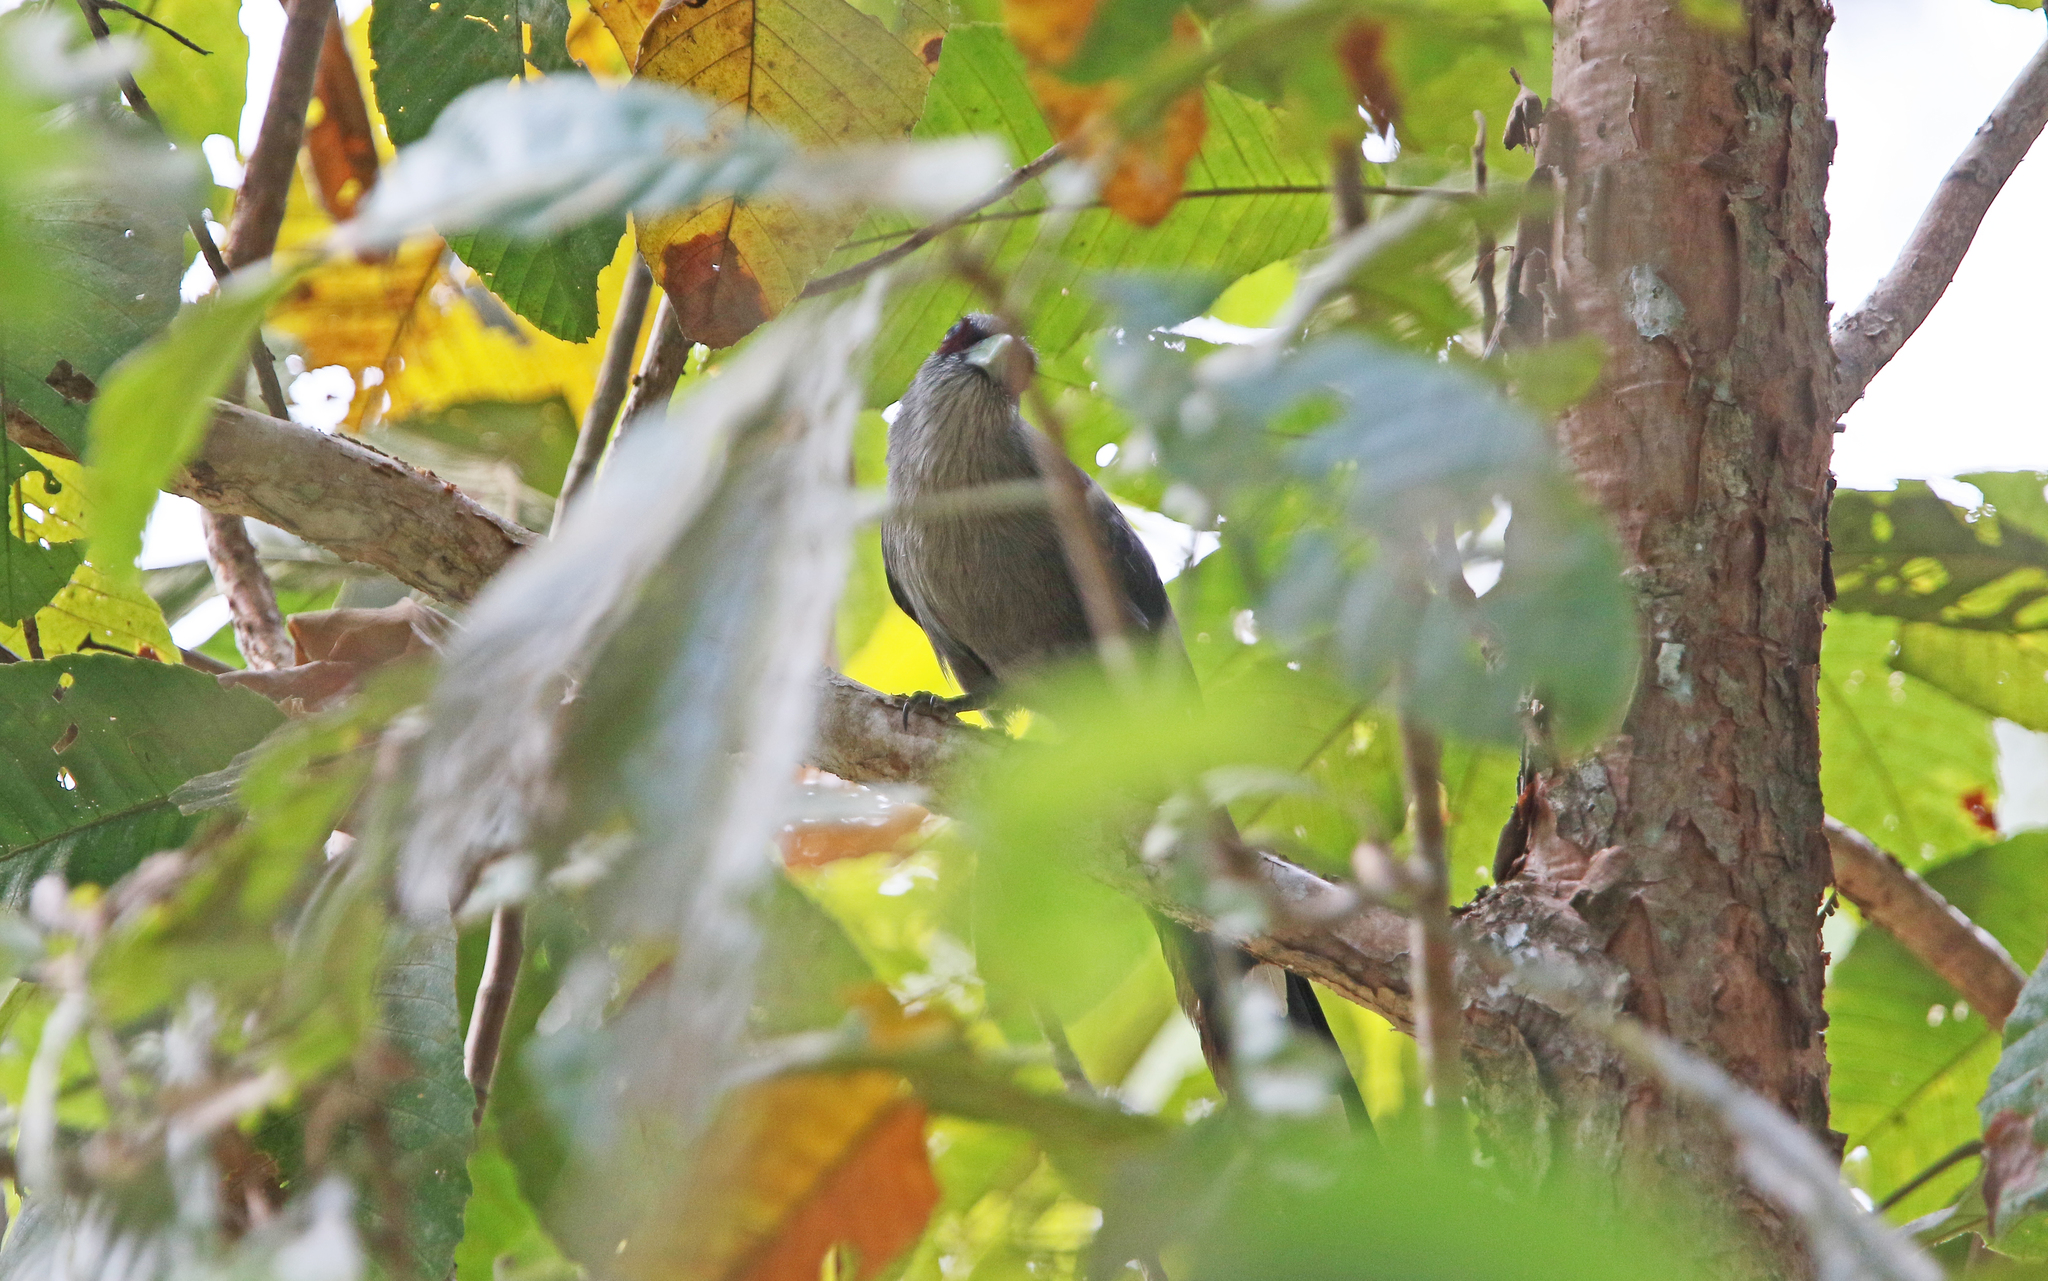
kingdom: Animalia
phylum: Chordata
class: Aves
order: Cuculiformes
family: Cuculidae
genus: Rhopodytes
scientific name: Rhopodytes tristis
